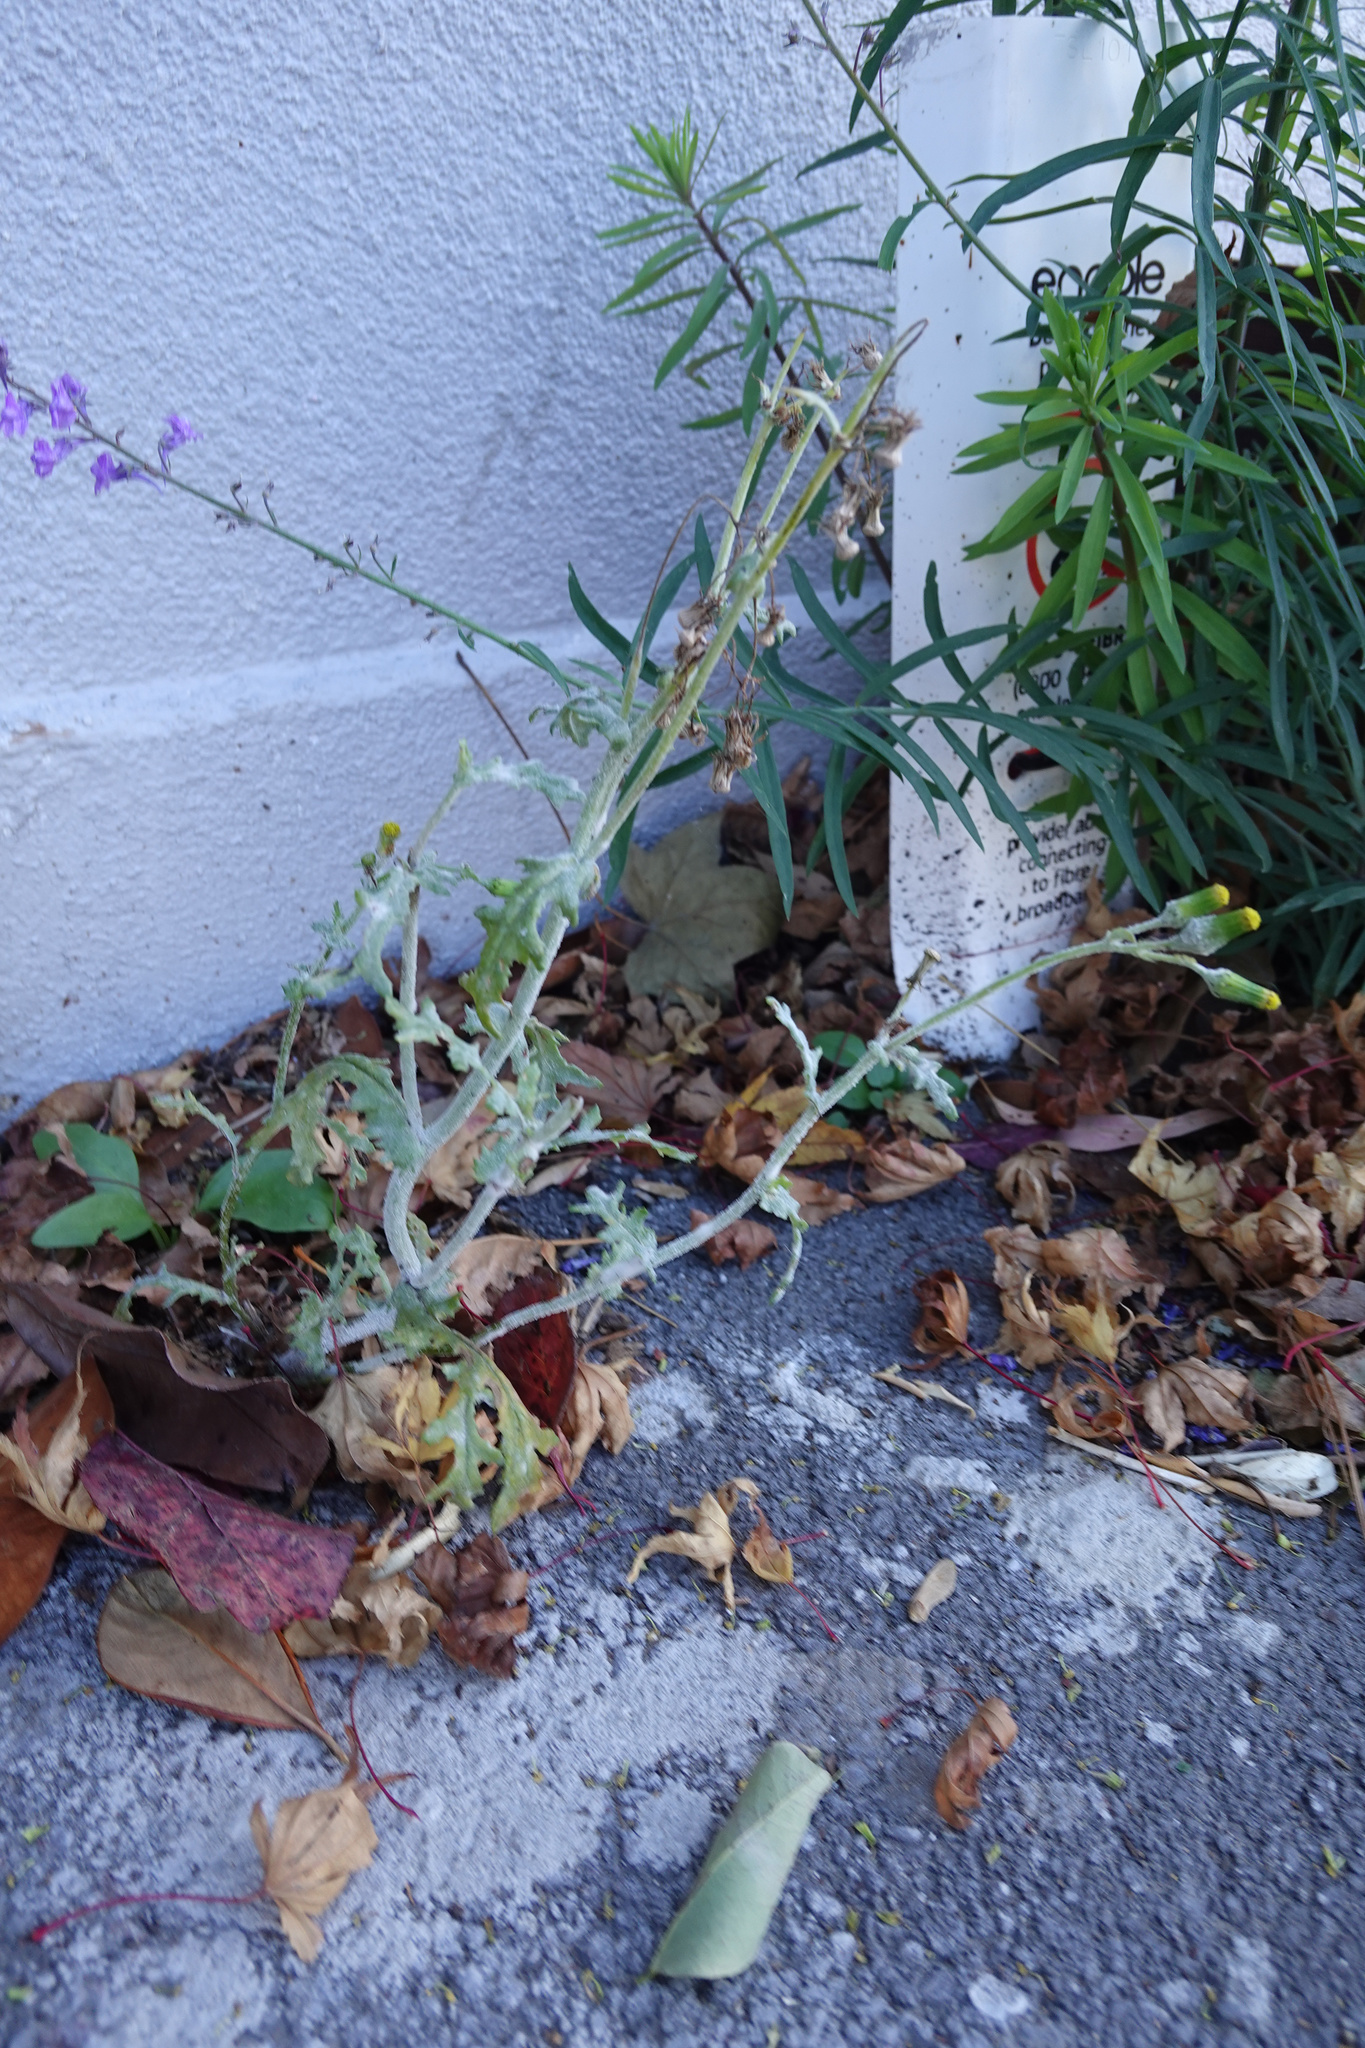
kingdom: Plantae
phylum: Tracheophyta
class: Magnoliopsida
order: Asterales
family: Asteraceae
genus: Senecio
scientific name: Senecio vulgaris
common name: Old-man-in-the-spring
